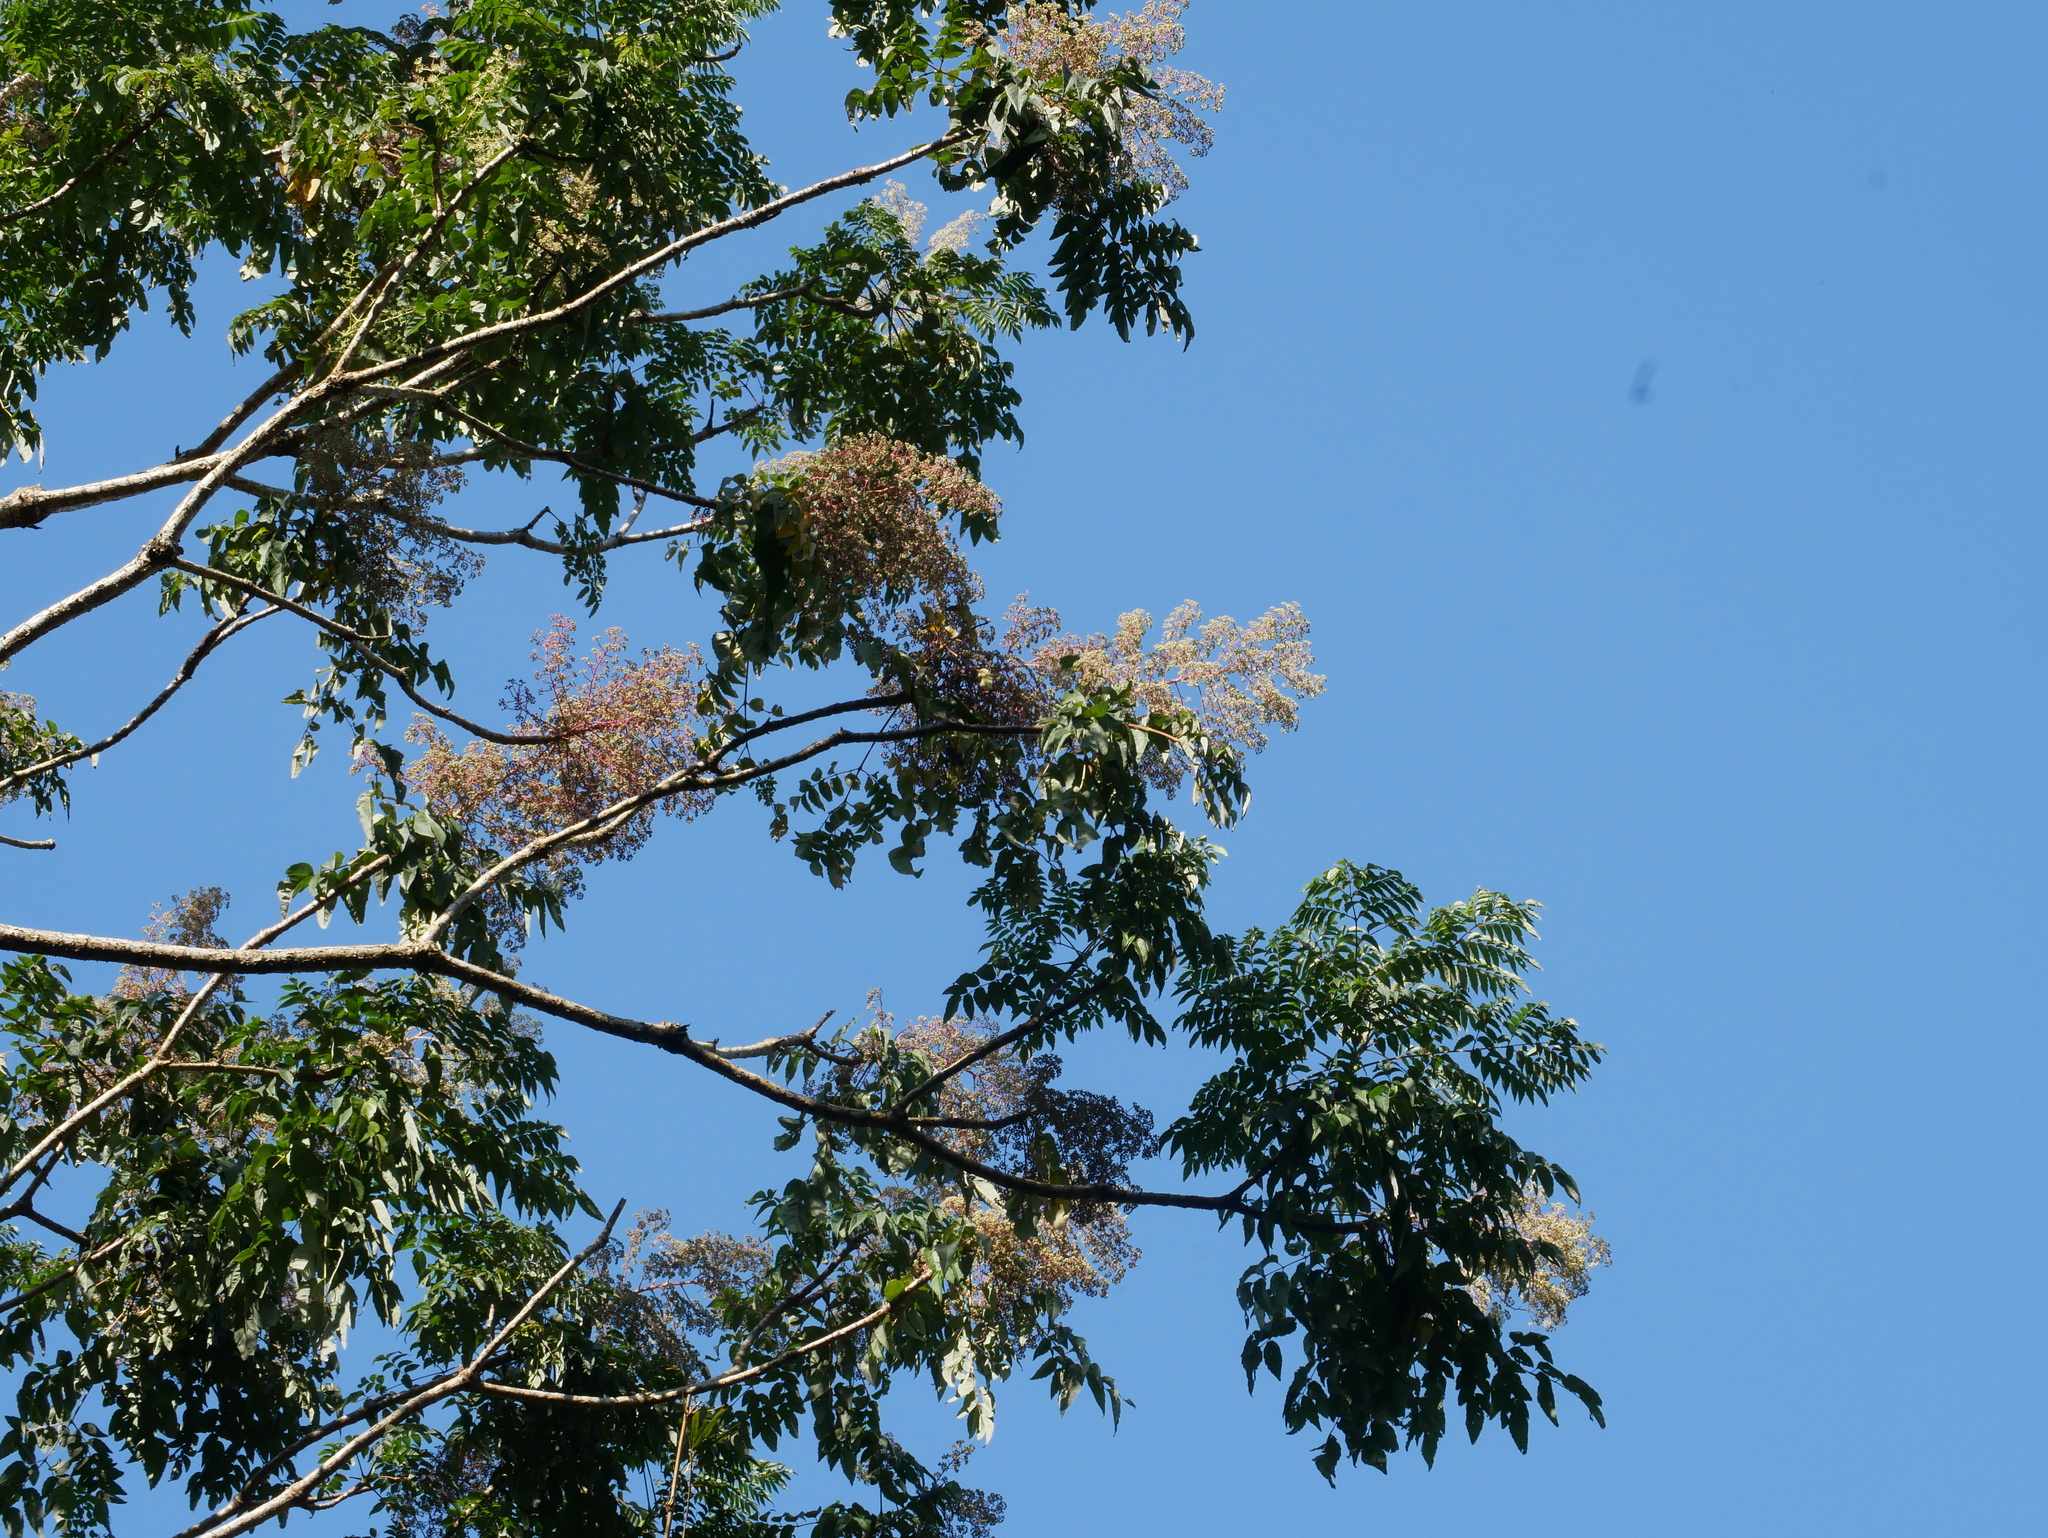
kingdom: Plantae
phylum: Tracheophyta
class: Magnoliopsida
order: Apiales
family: Araliaceae
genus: Aralia
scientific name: Aralia bipinnata
